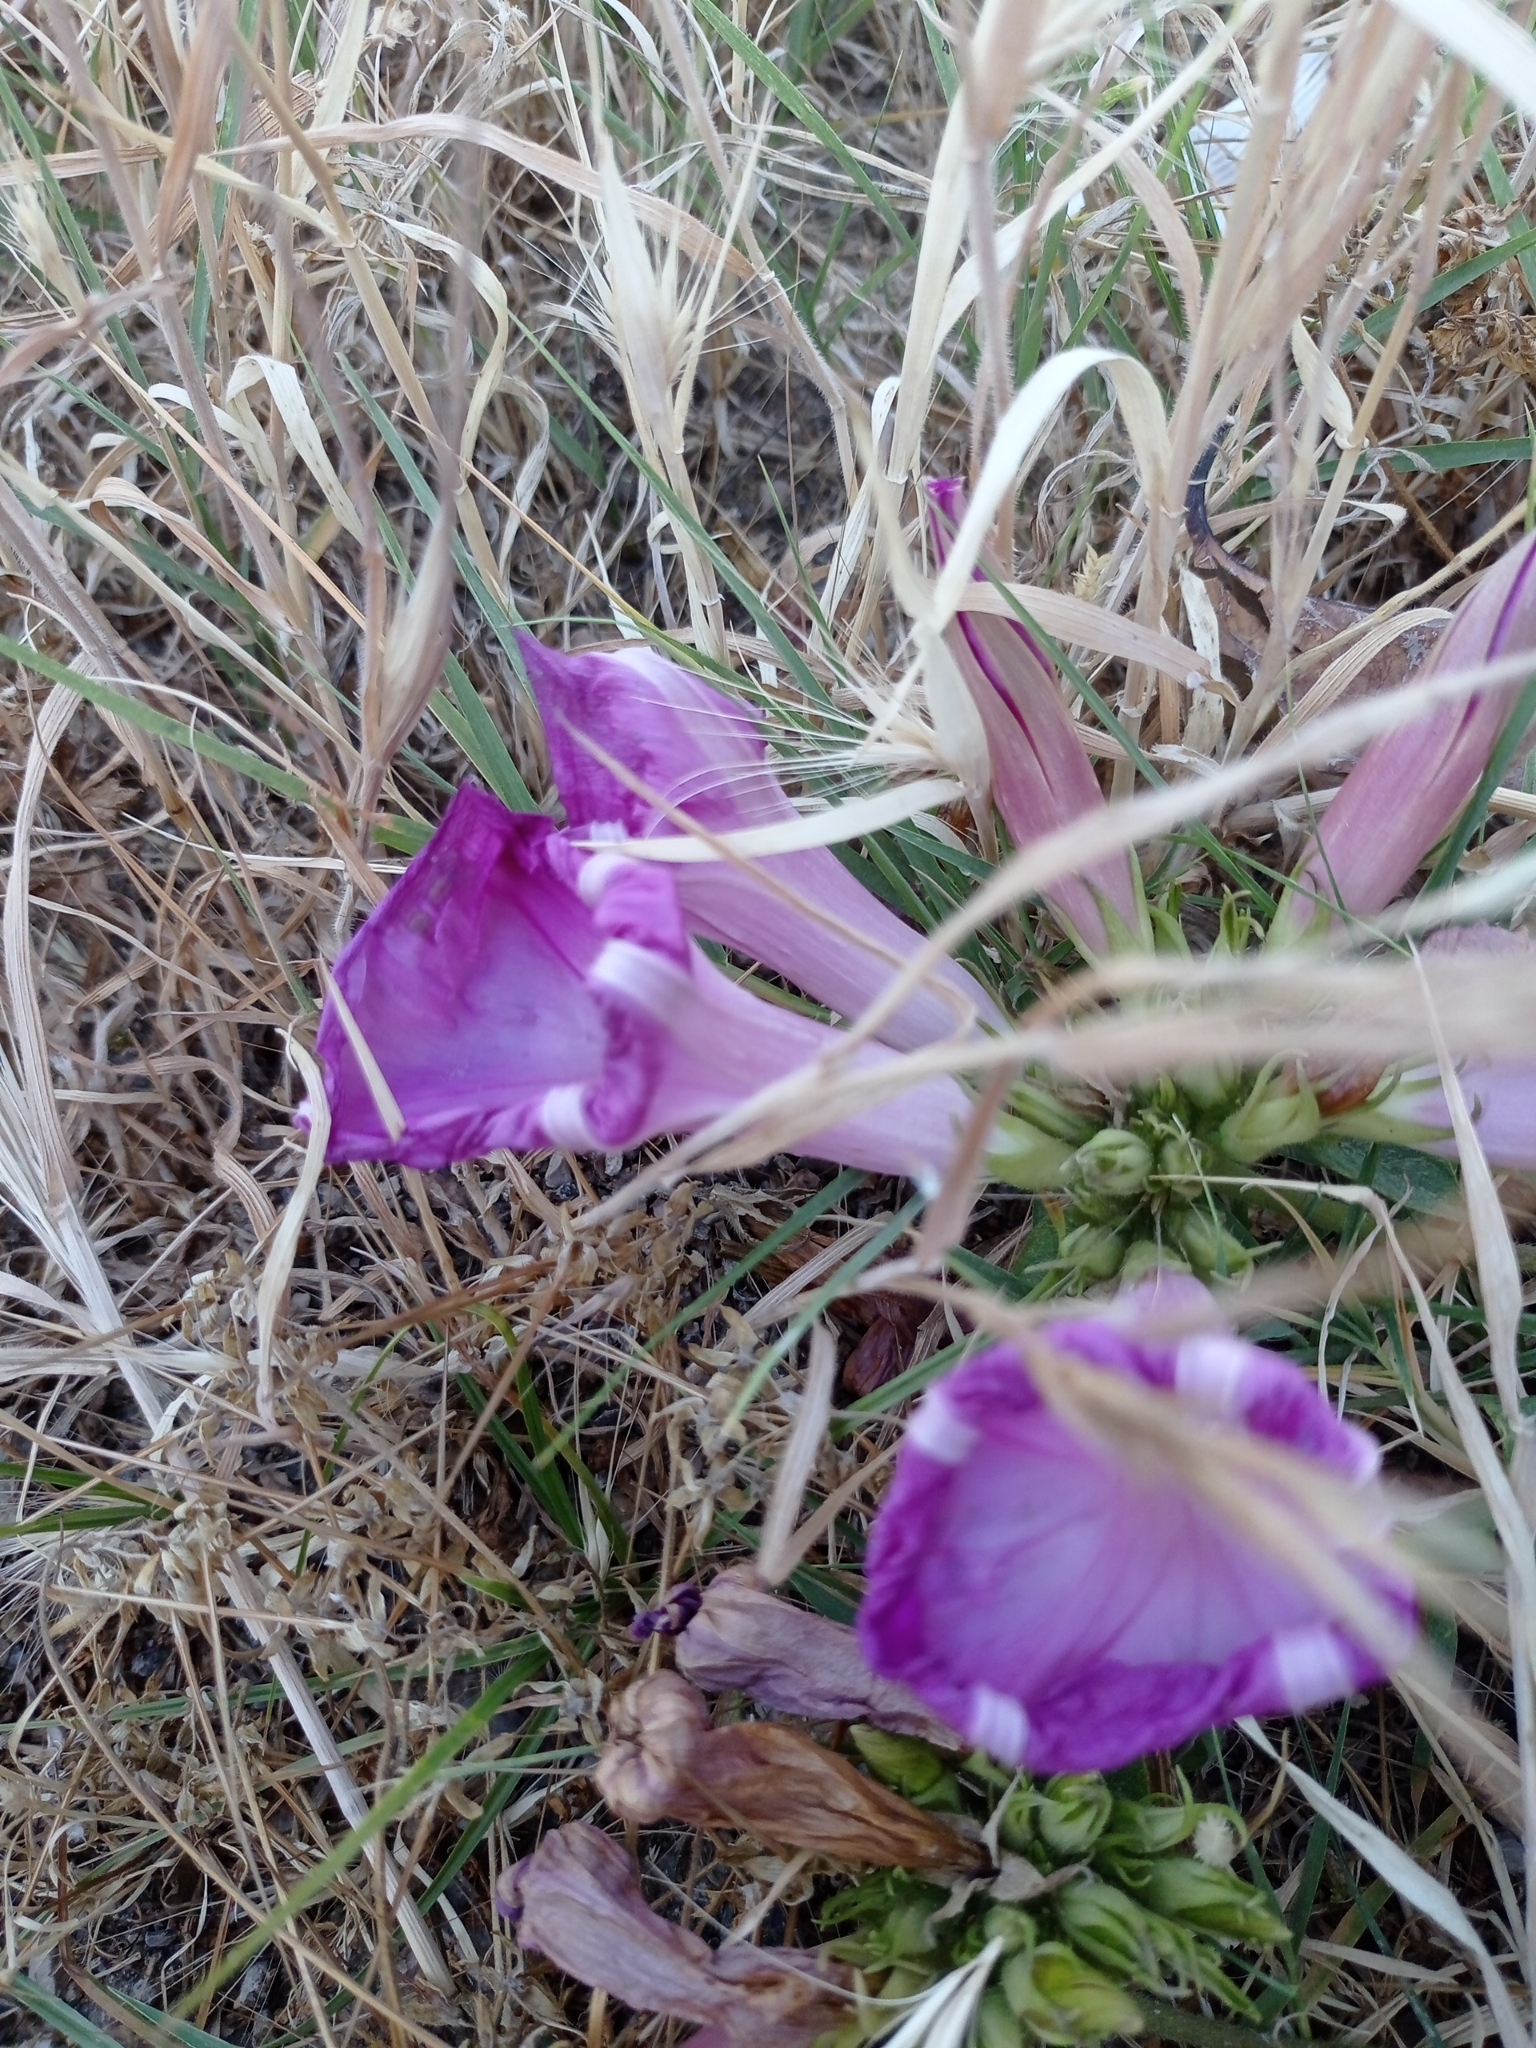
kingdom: Plantae
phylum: Tracheophyta
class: Magnoliopsida
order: Solanales
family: Convolvulaceae
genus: Ipomoea
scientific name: Ipomoea indica
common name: Blue dawnflower
